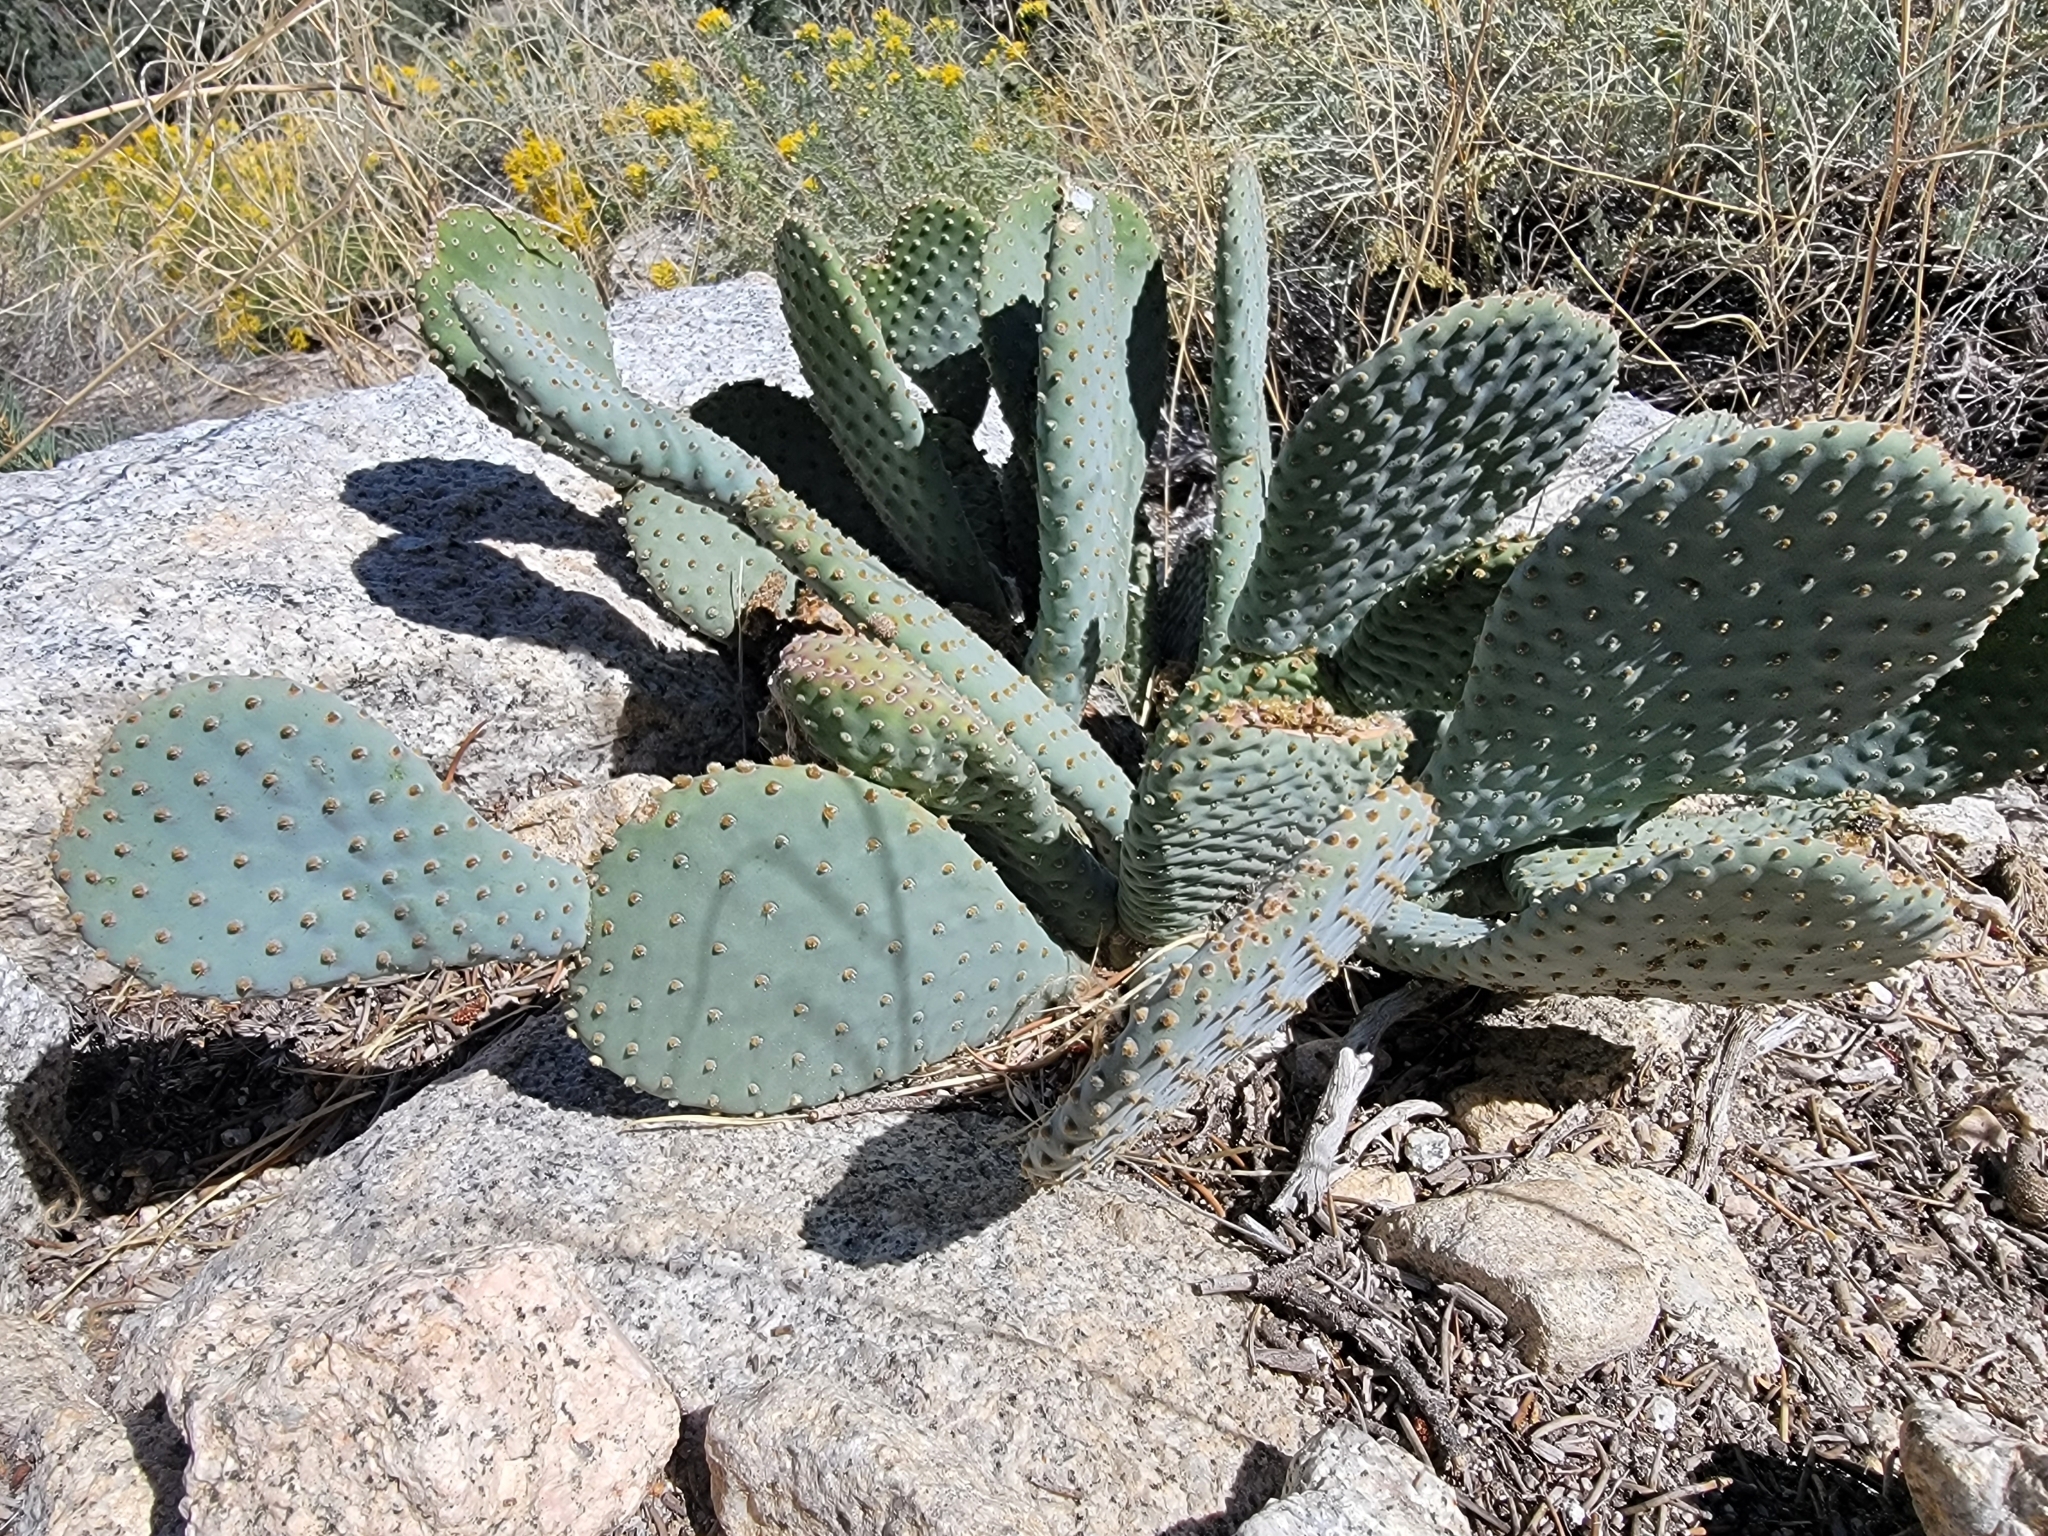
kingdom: Plantae
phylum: Tracheophyta
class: Magnoliopsida
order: Caryophyllales
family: Cactaceae
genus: Opuntia
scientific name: Opuntia basilaris
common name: Beavertail prickly-pear
